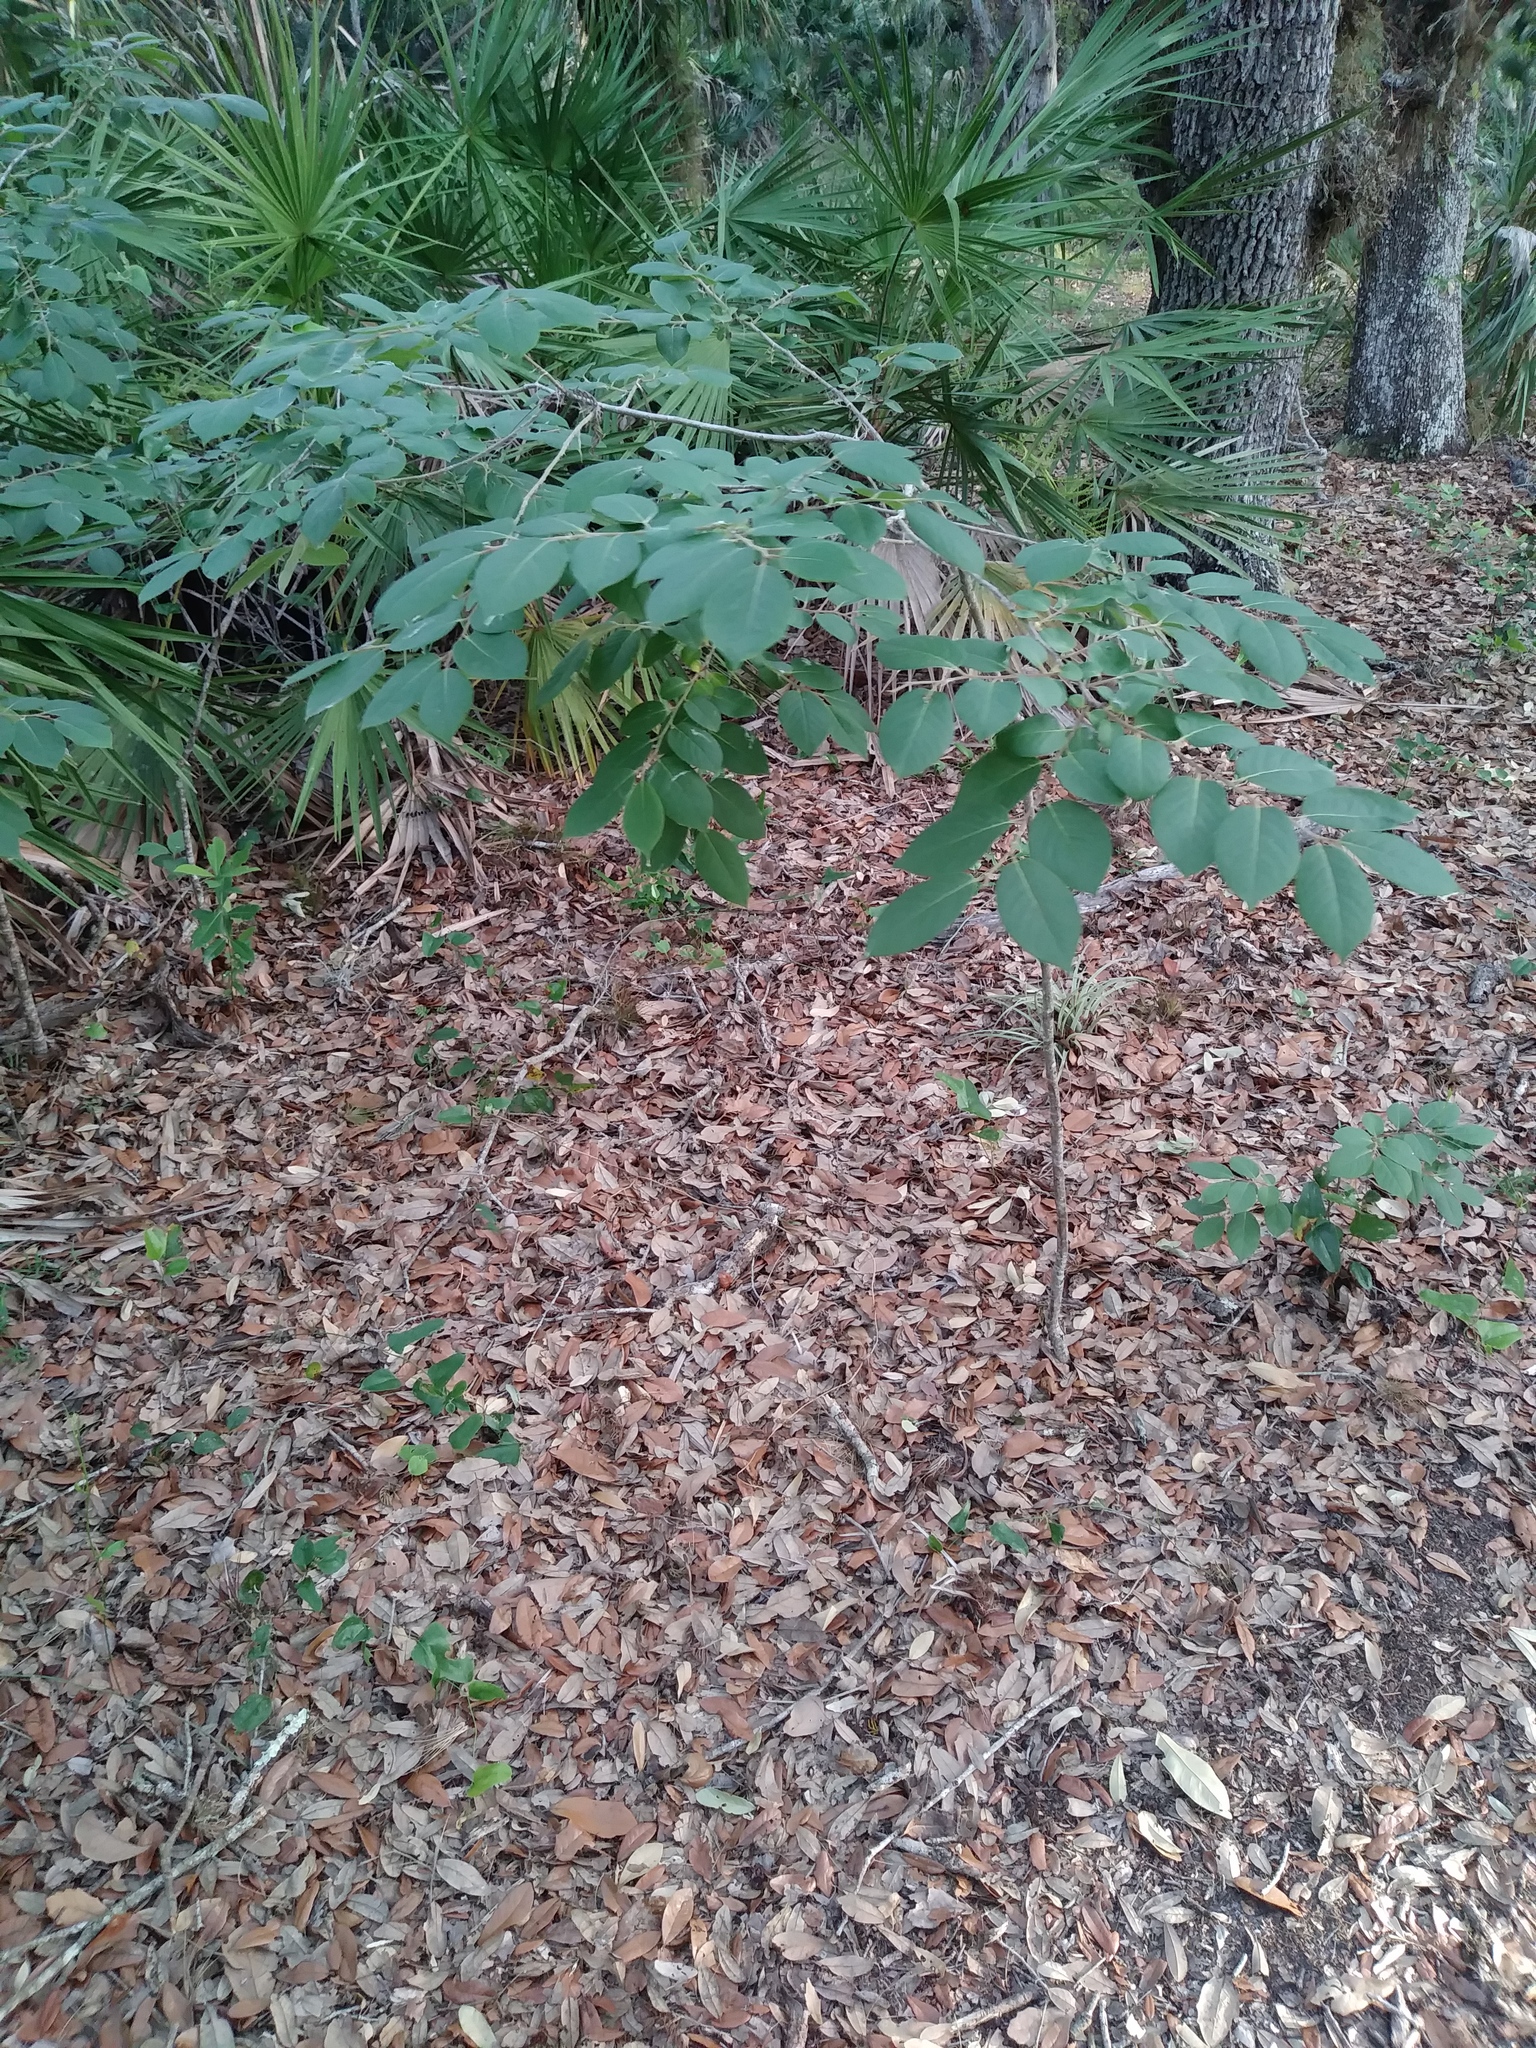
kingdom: Plantae
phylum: Tracheophyta
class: Magnoliopsida
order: Ericales
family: Ebenaceae
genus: Diospyros
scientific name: Diospyros virginiana
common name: Persimmon
